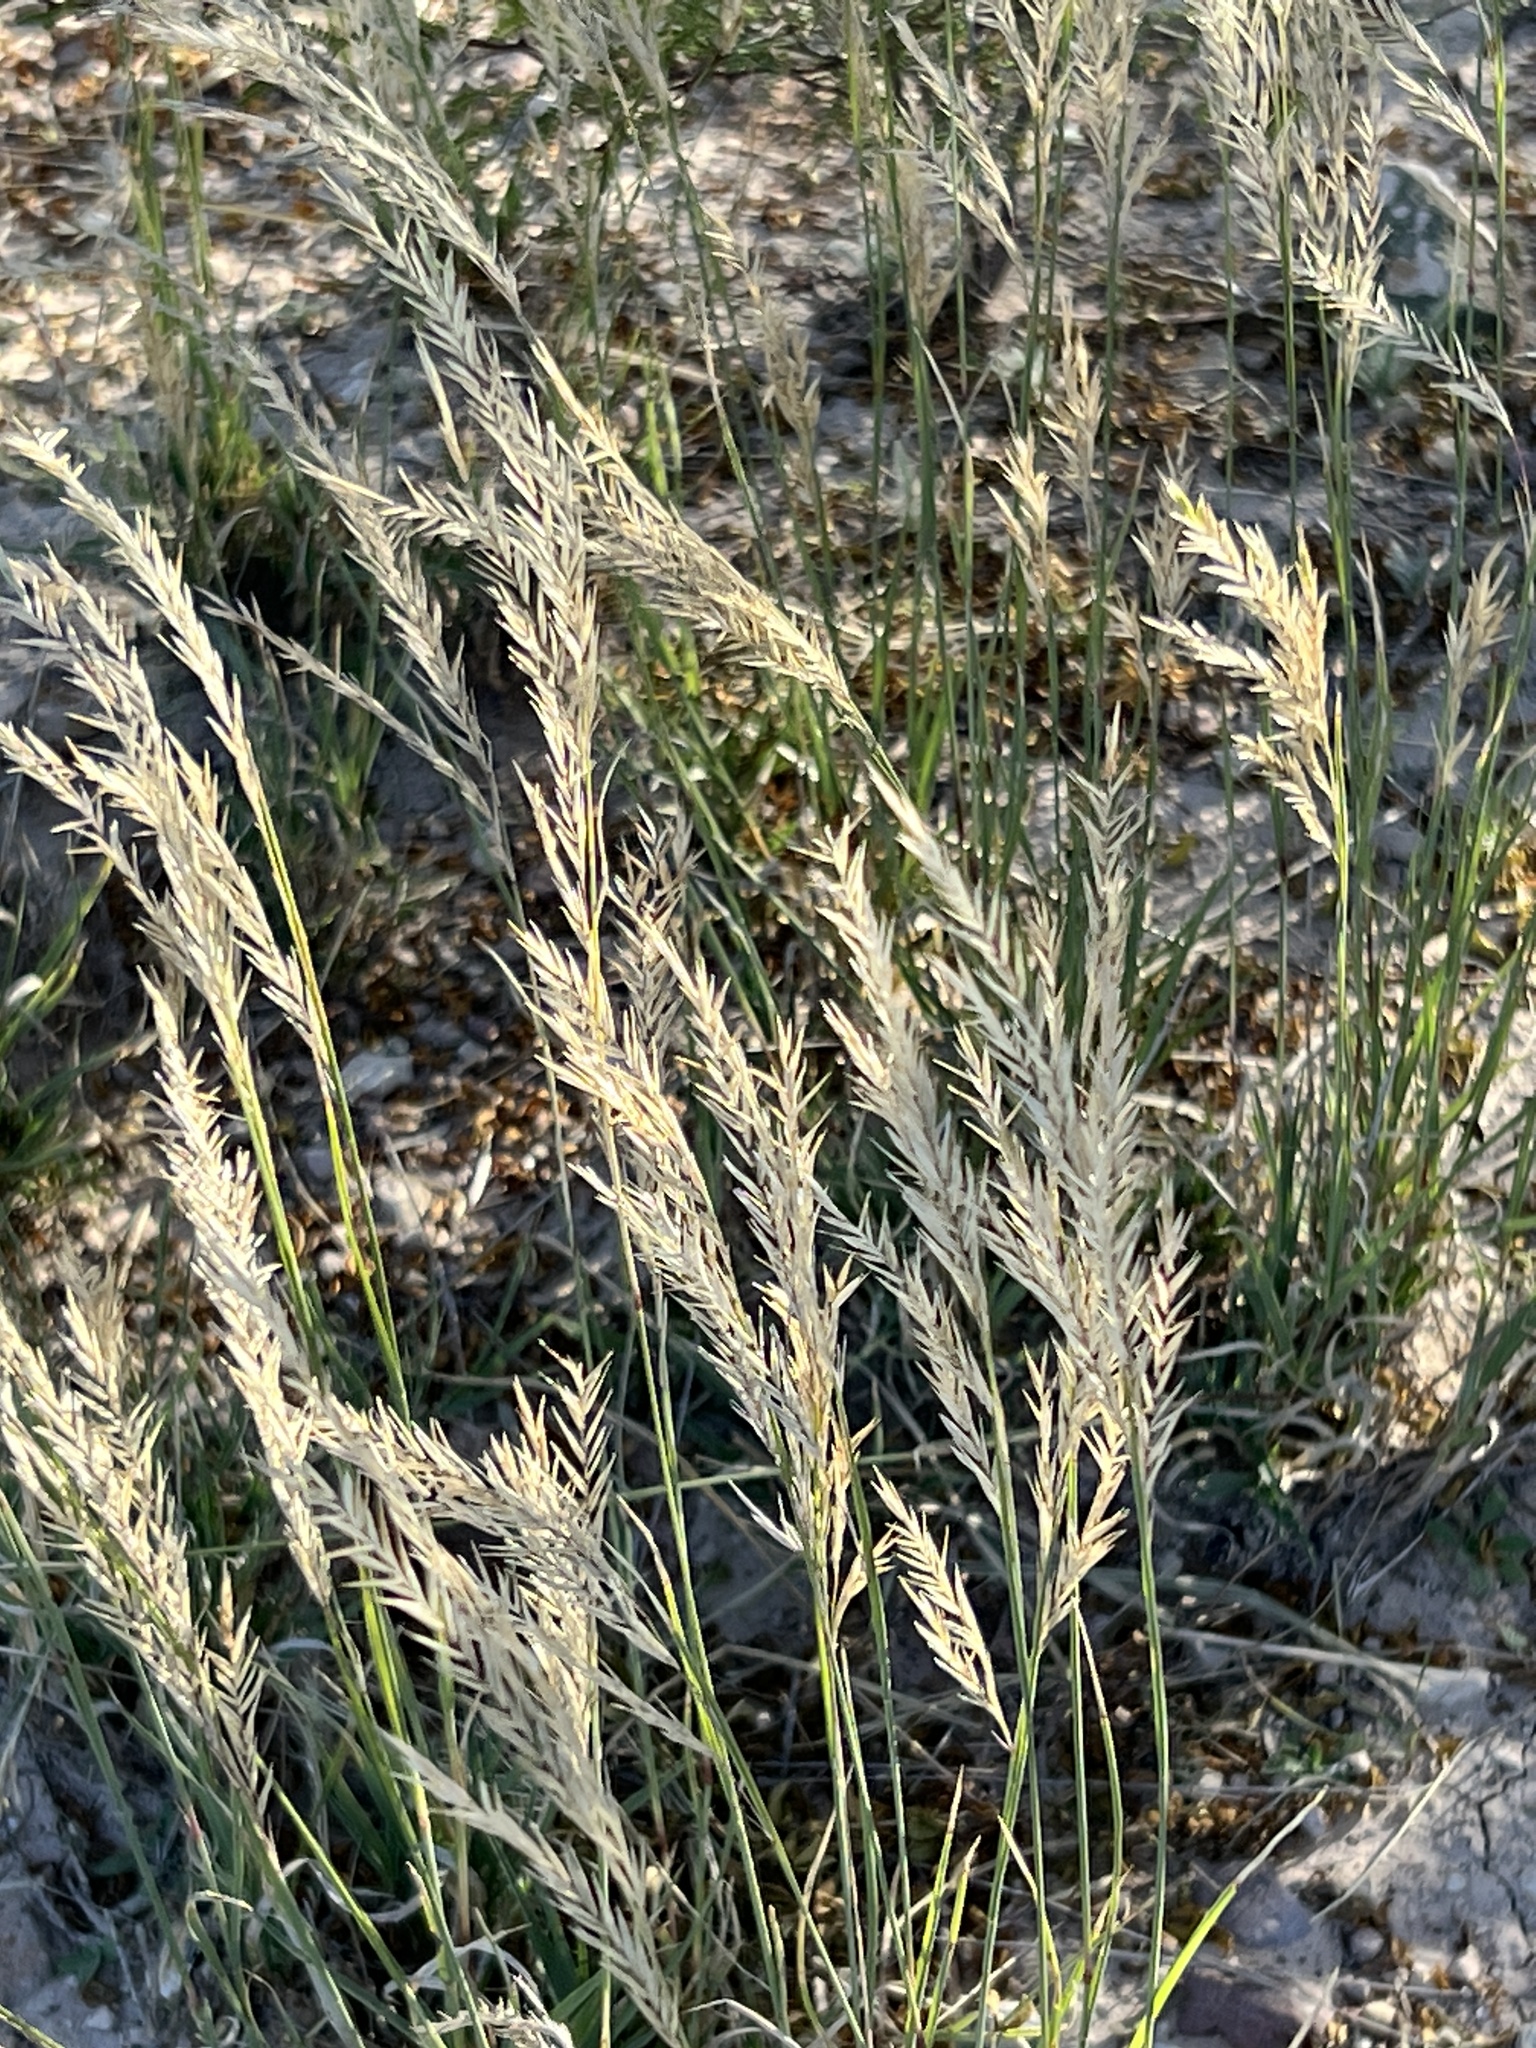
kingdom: Plantae
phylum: Tracheophyta
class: Liliopsida
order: Poales
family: Poaceae
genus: Scleropogon
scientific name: Scleropogon brevifolius
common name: Burro grass
